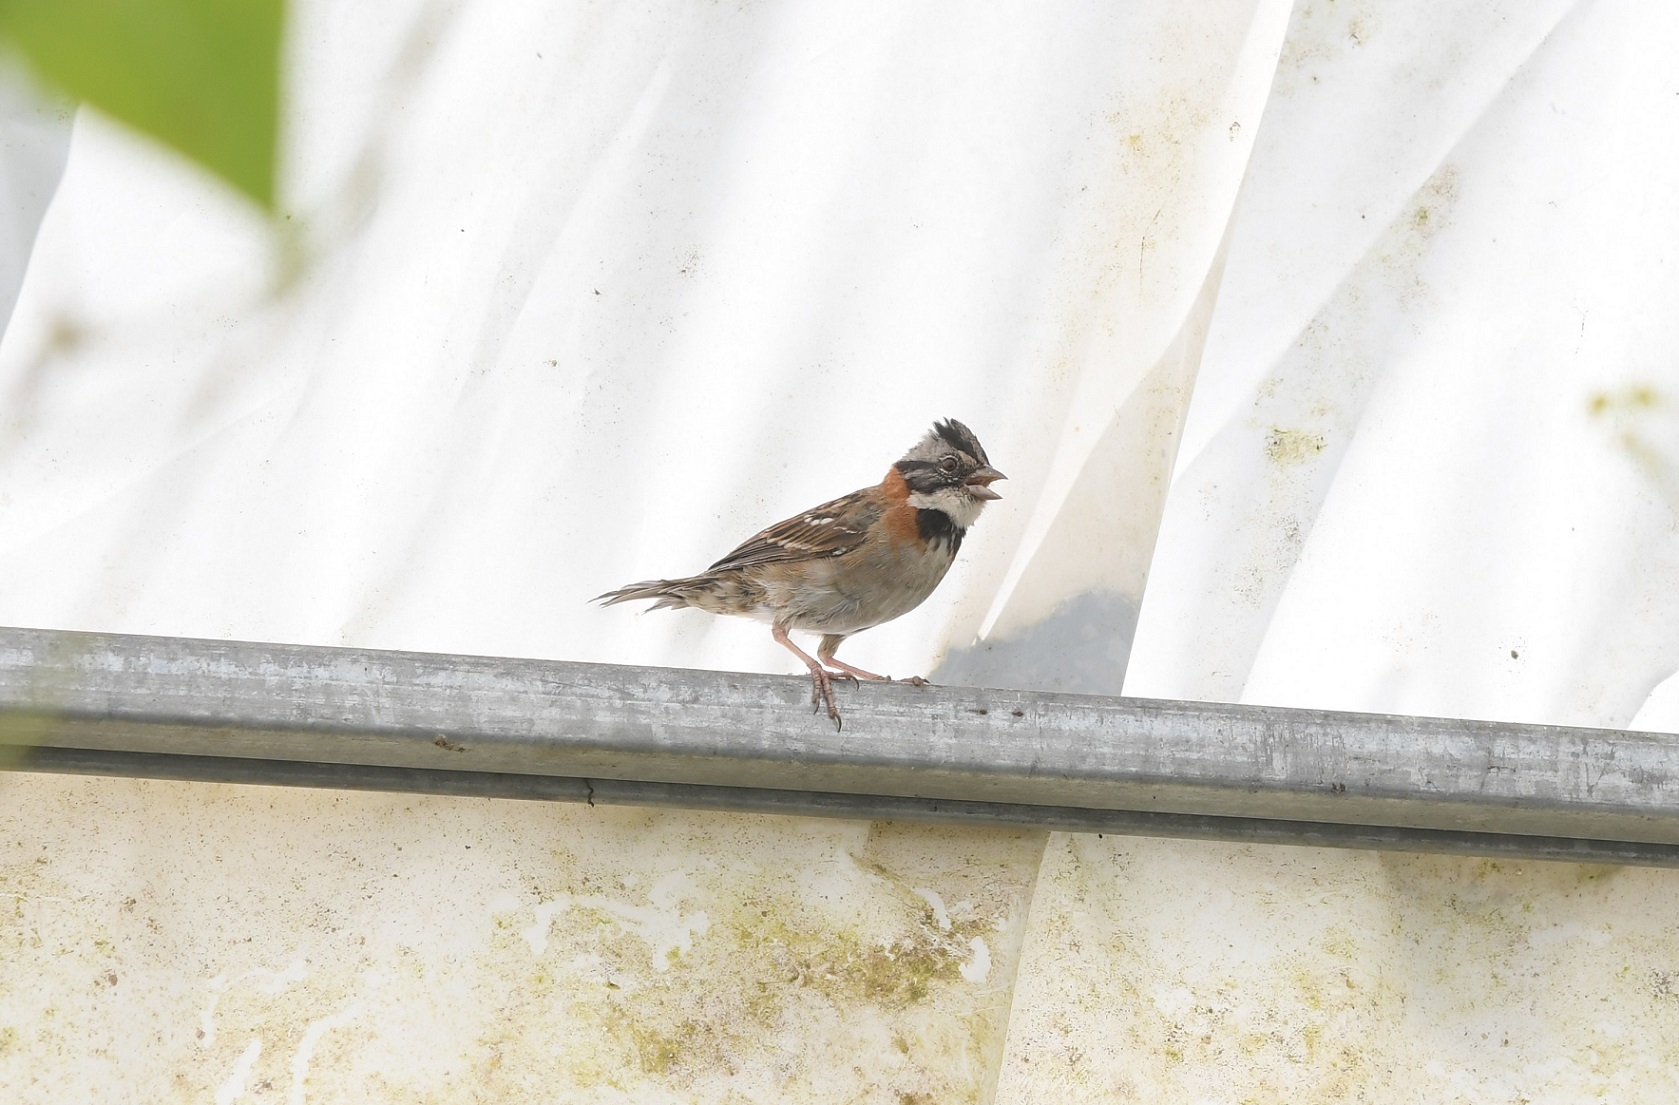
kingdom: Animalia
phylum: Chordata
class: Aves
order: Passeriformes
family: Passerellidae
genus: Zonotrichia
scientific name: Zonotrichia capensis
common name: Rufous-collared sparrow
